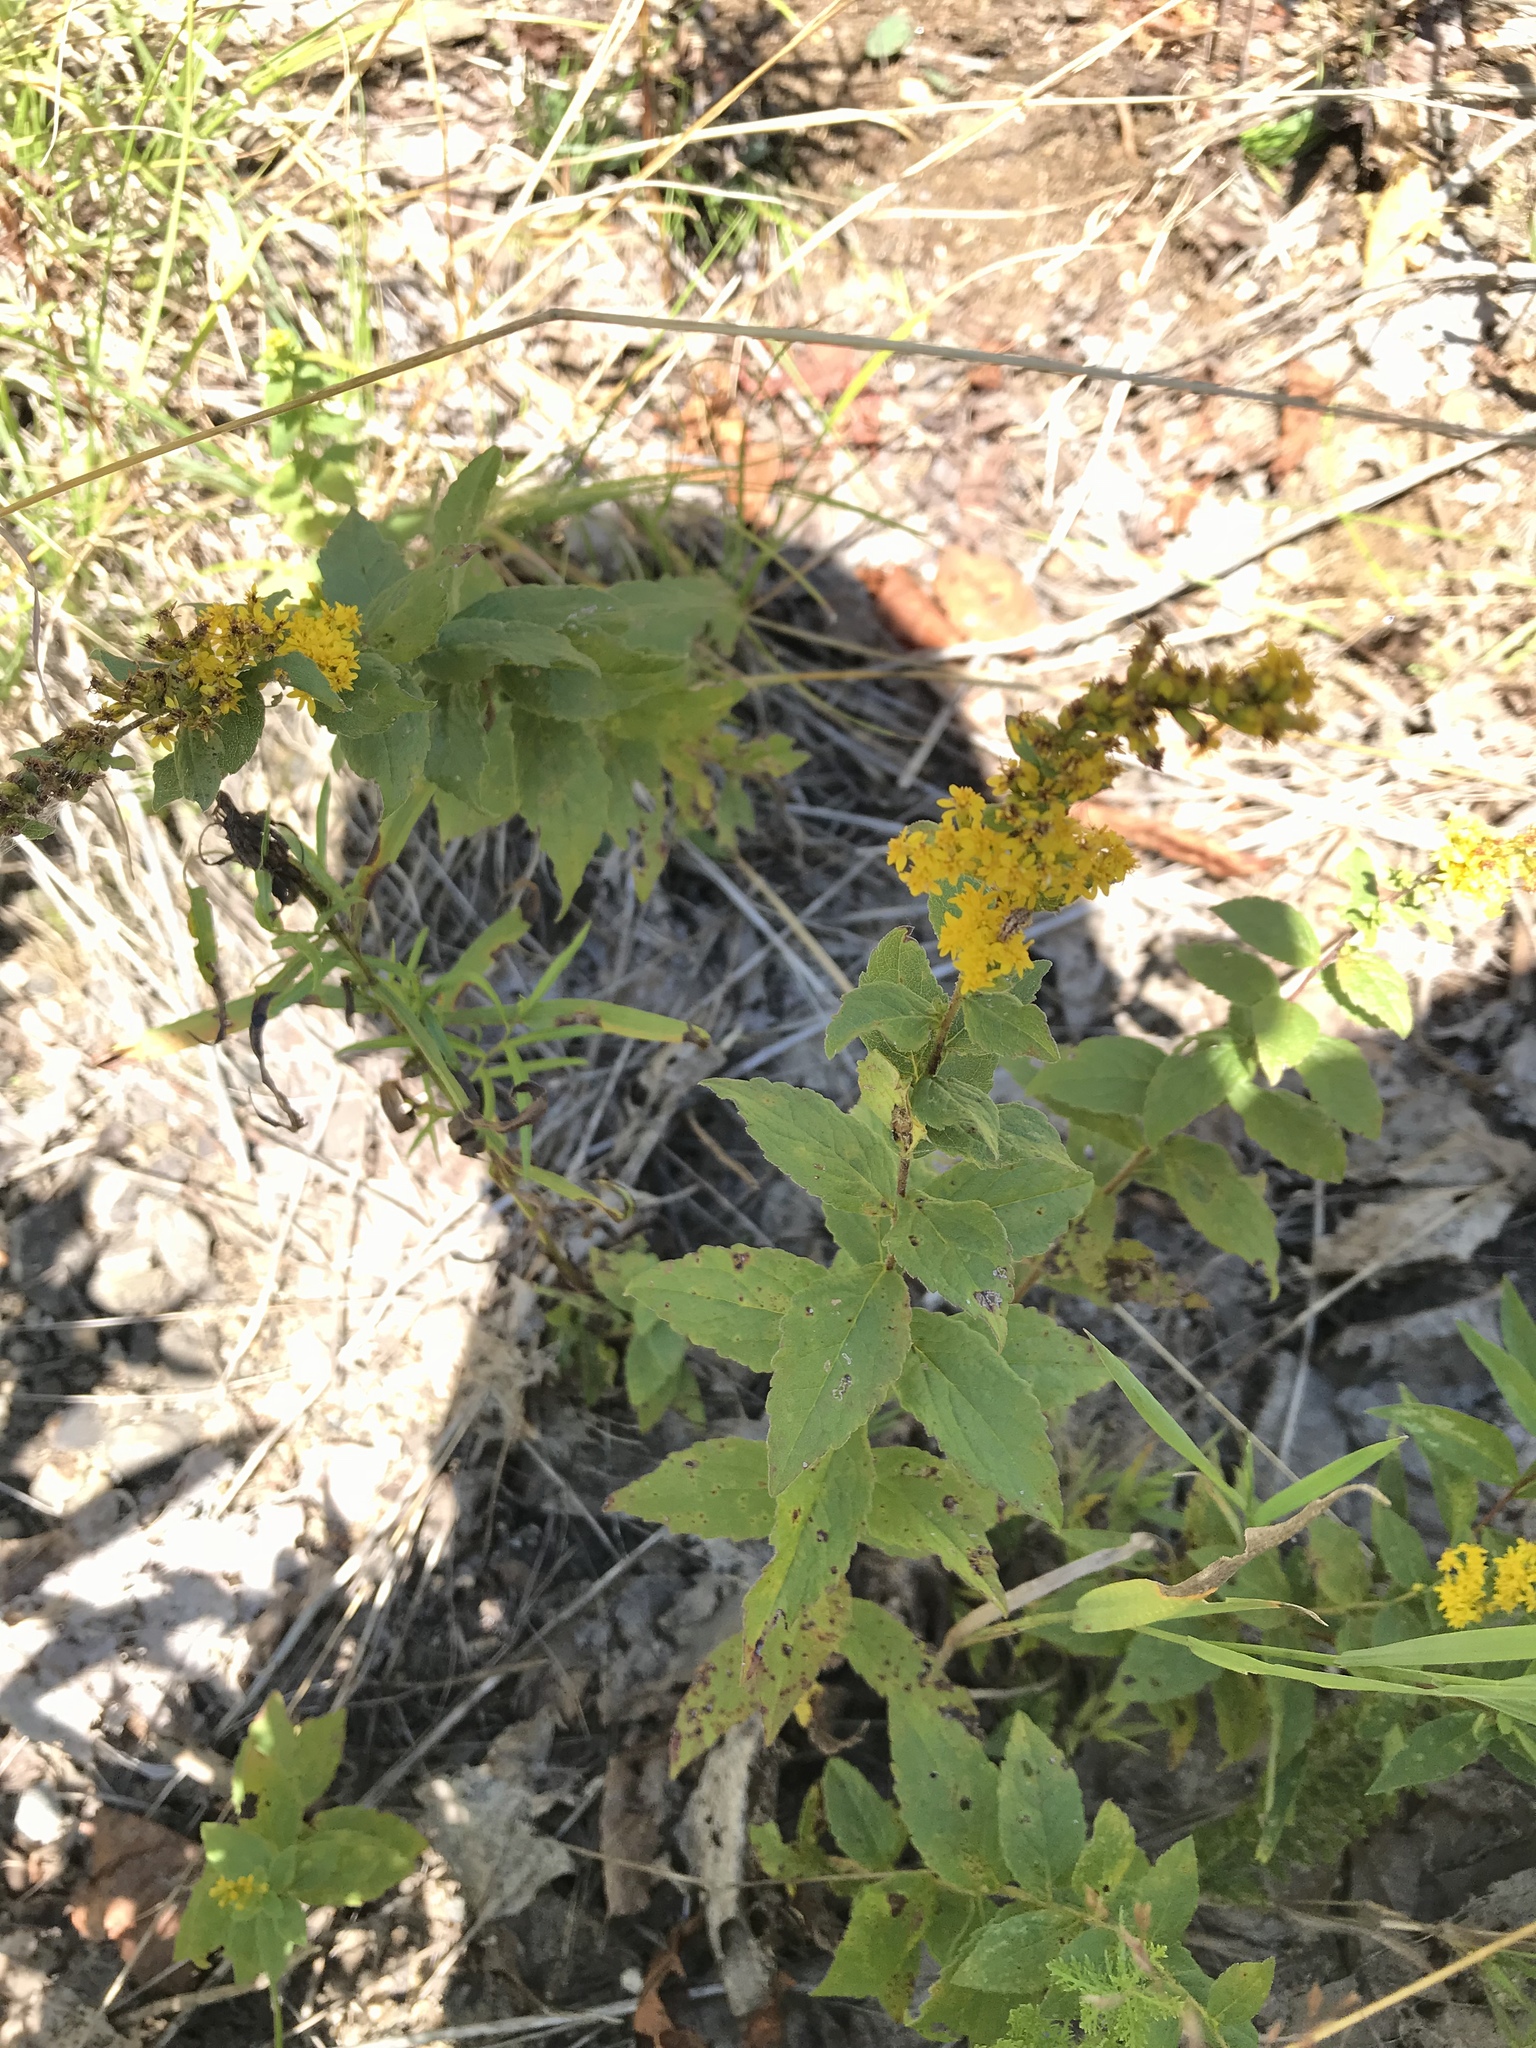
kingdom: Plantae
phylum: Tracheophyta
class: Magnoliopsida
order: Asterales
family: Asteraceae
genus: Solidago
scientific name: Solidago rugosa
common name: Rough-stemmed goldenrod
